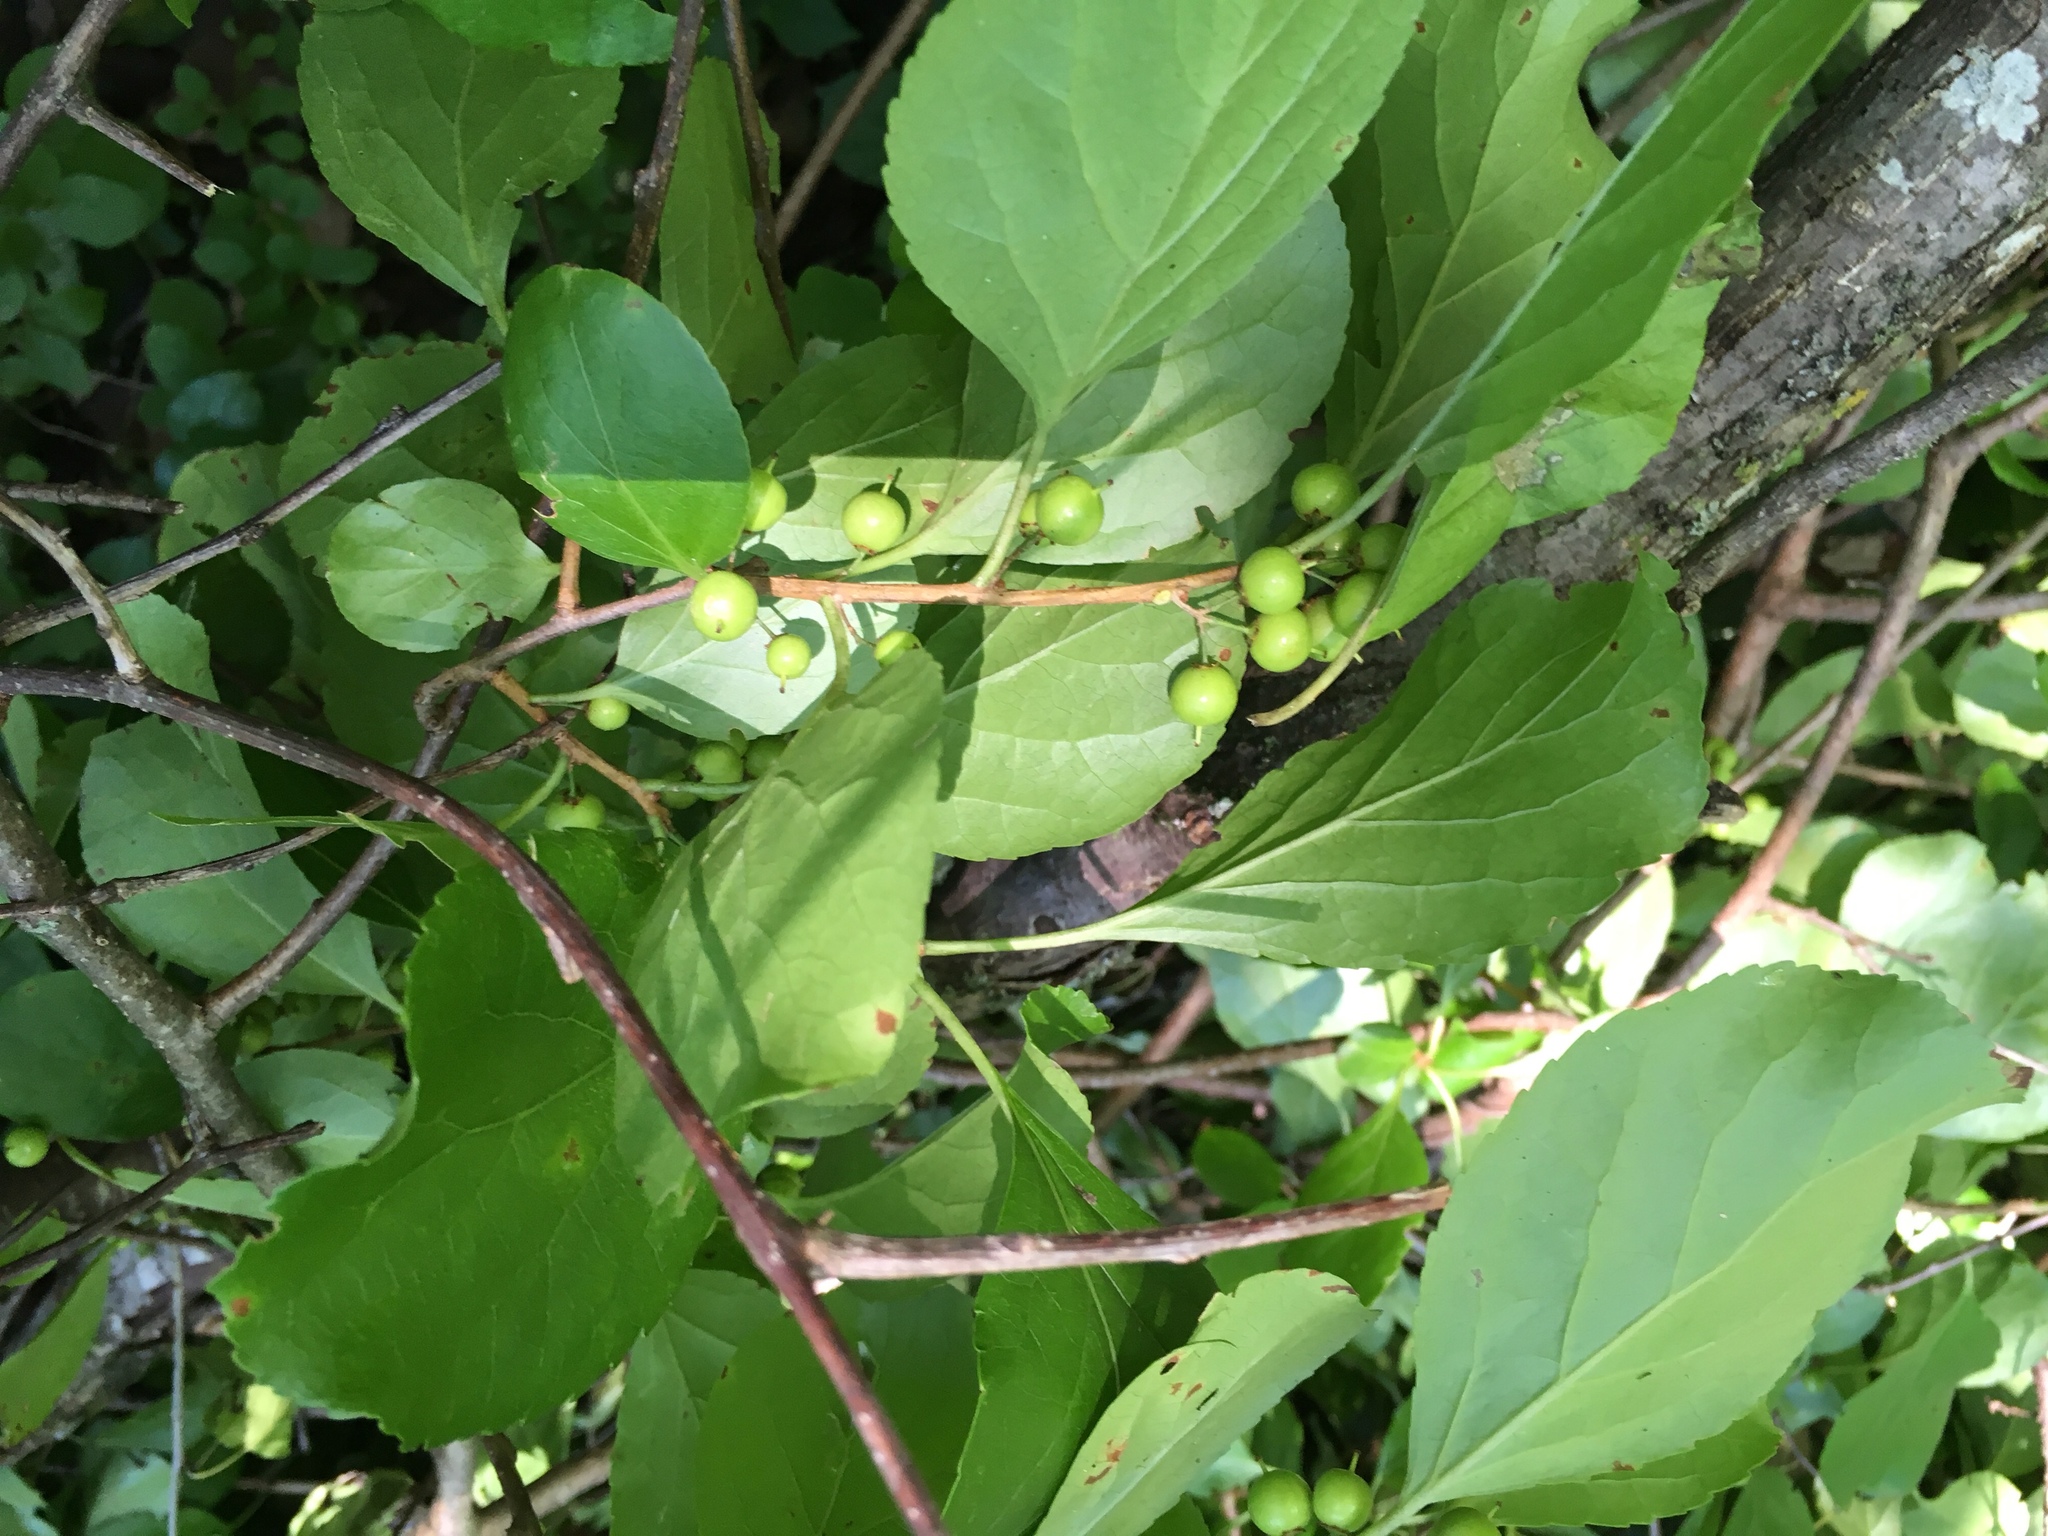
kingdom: Plantae
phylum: Tracheophyta
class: Magnoliopsida
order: Celastrales
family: Celastraceae
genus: Celastrus
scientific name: Celastrus orbiculatus
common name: Oriental bittersweet
